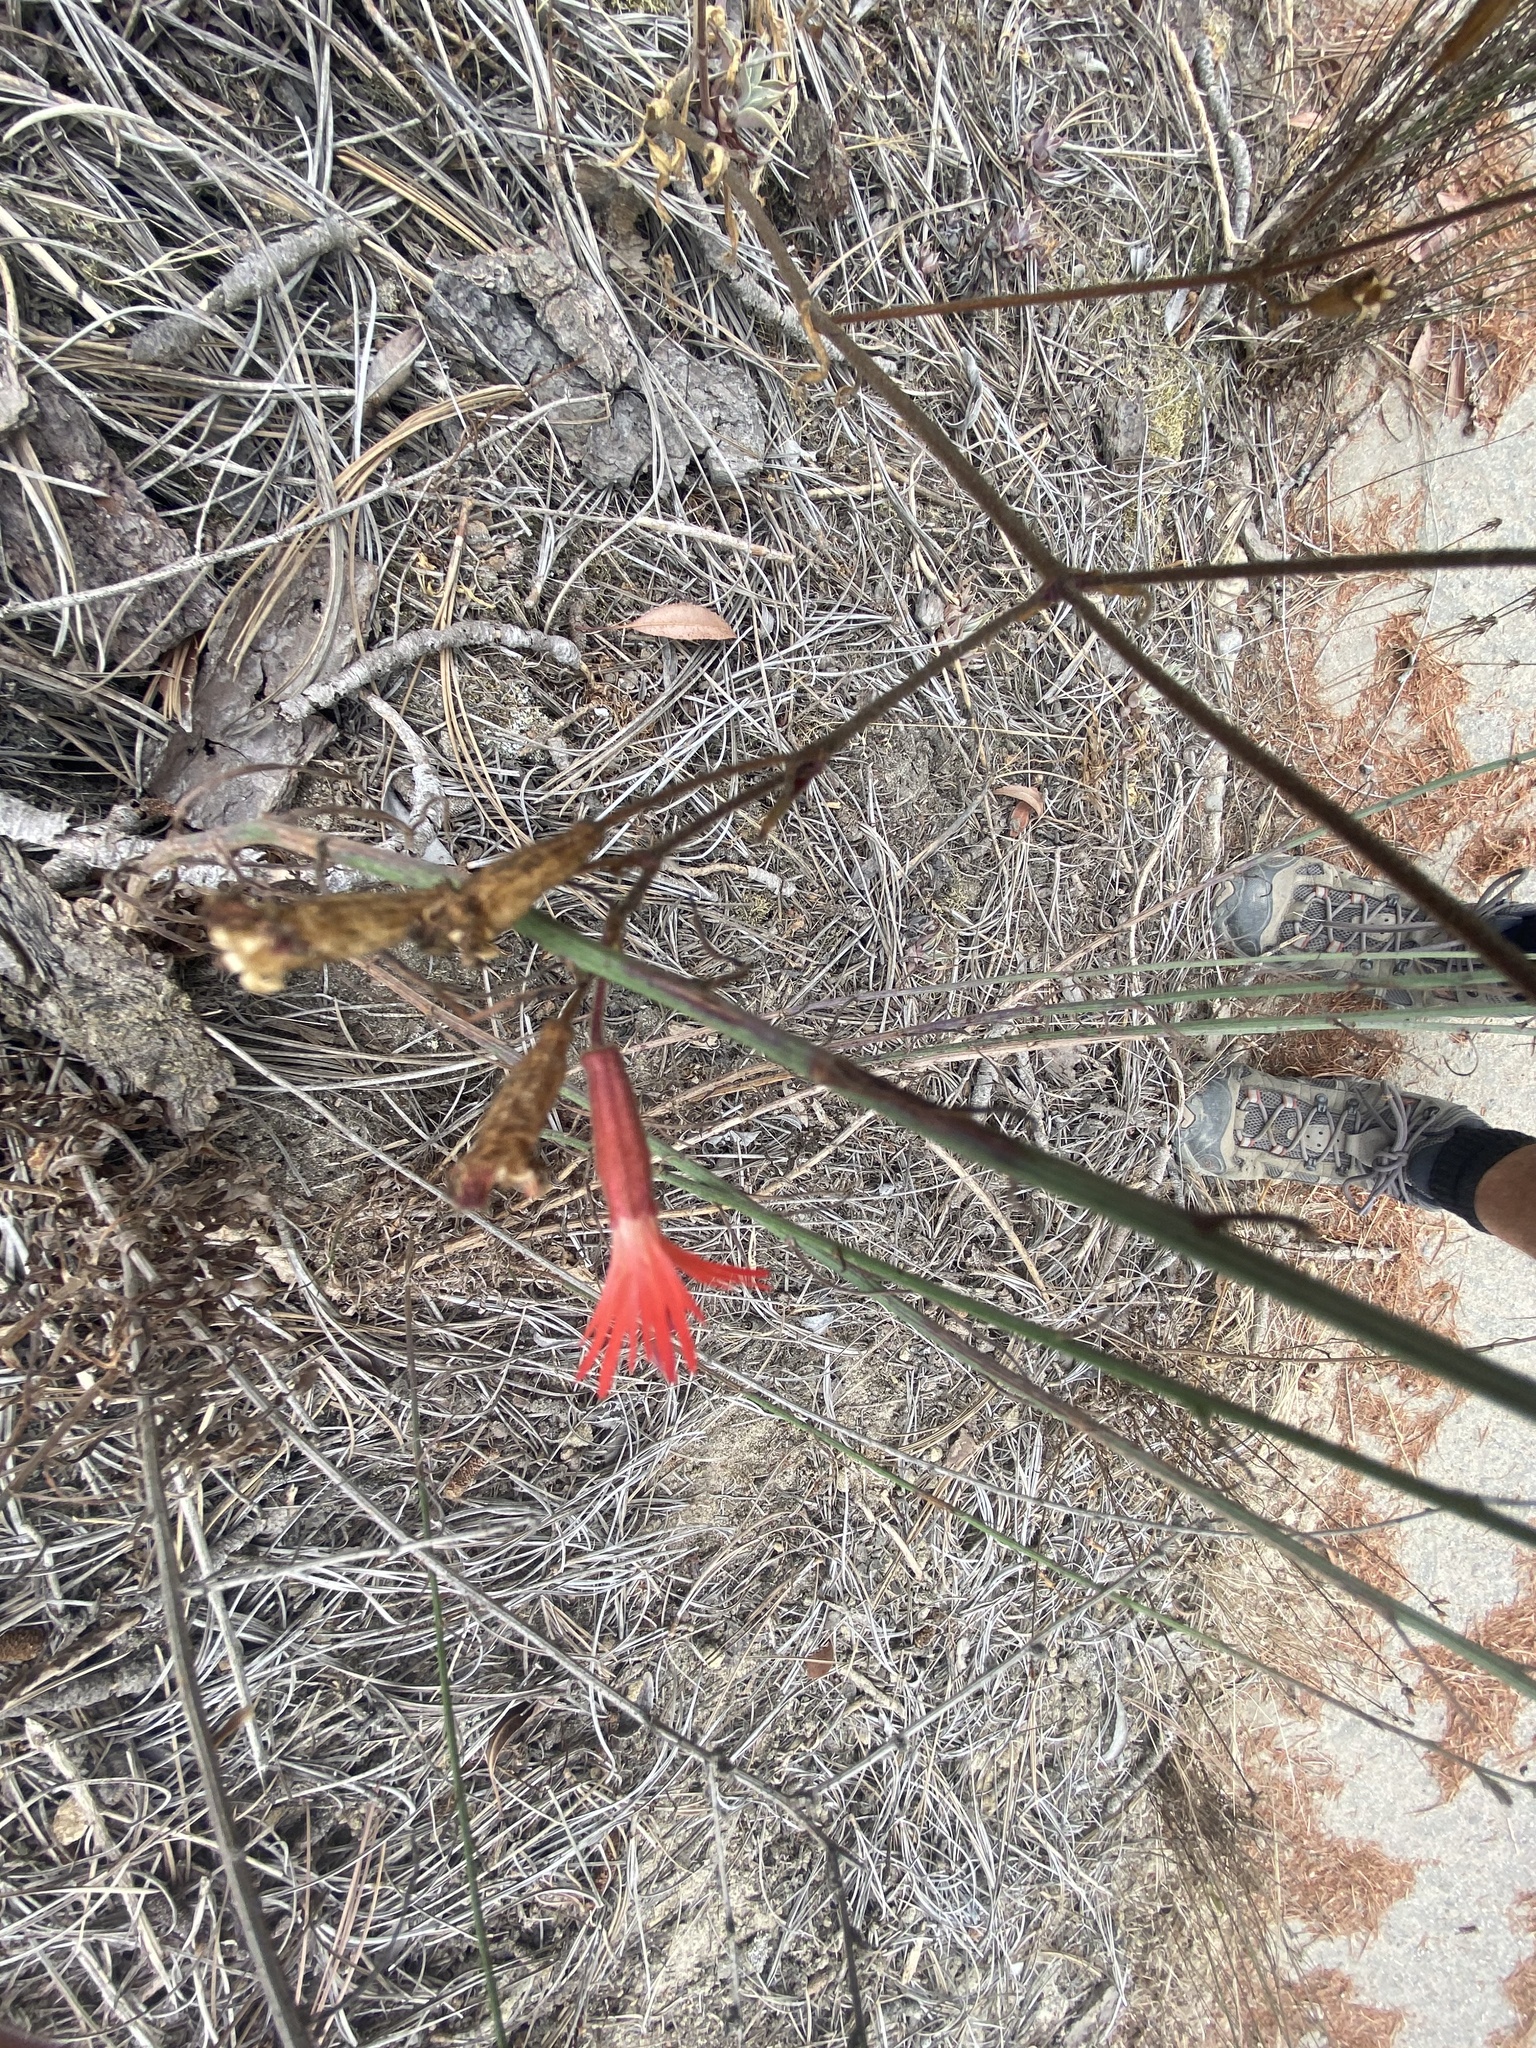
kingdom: Plantae
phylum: Tracheophyta
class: Magnoliopsida
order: Caryophyllales
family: Caryophyllaceae
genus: Silene
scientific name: Silene laciniata
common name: Indian-pink
